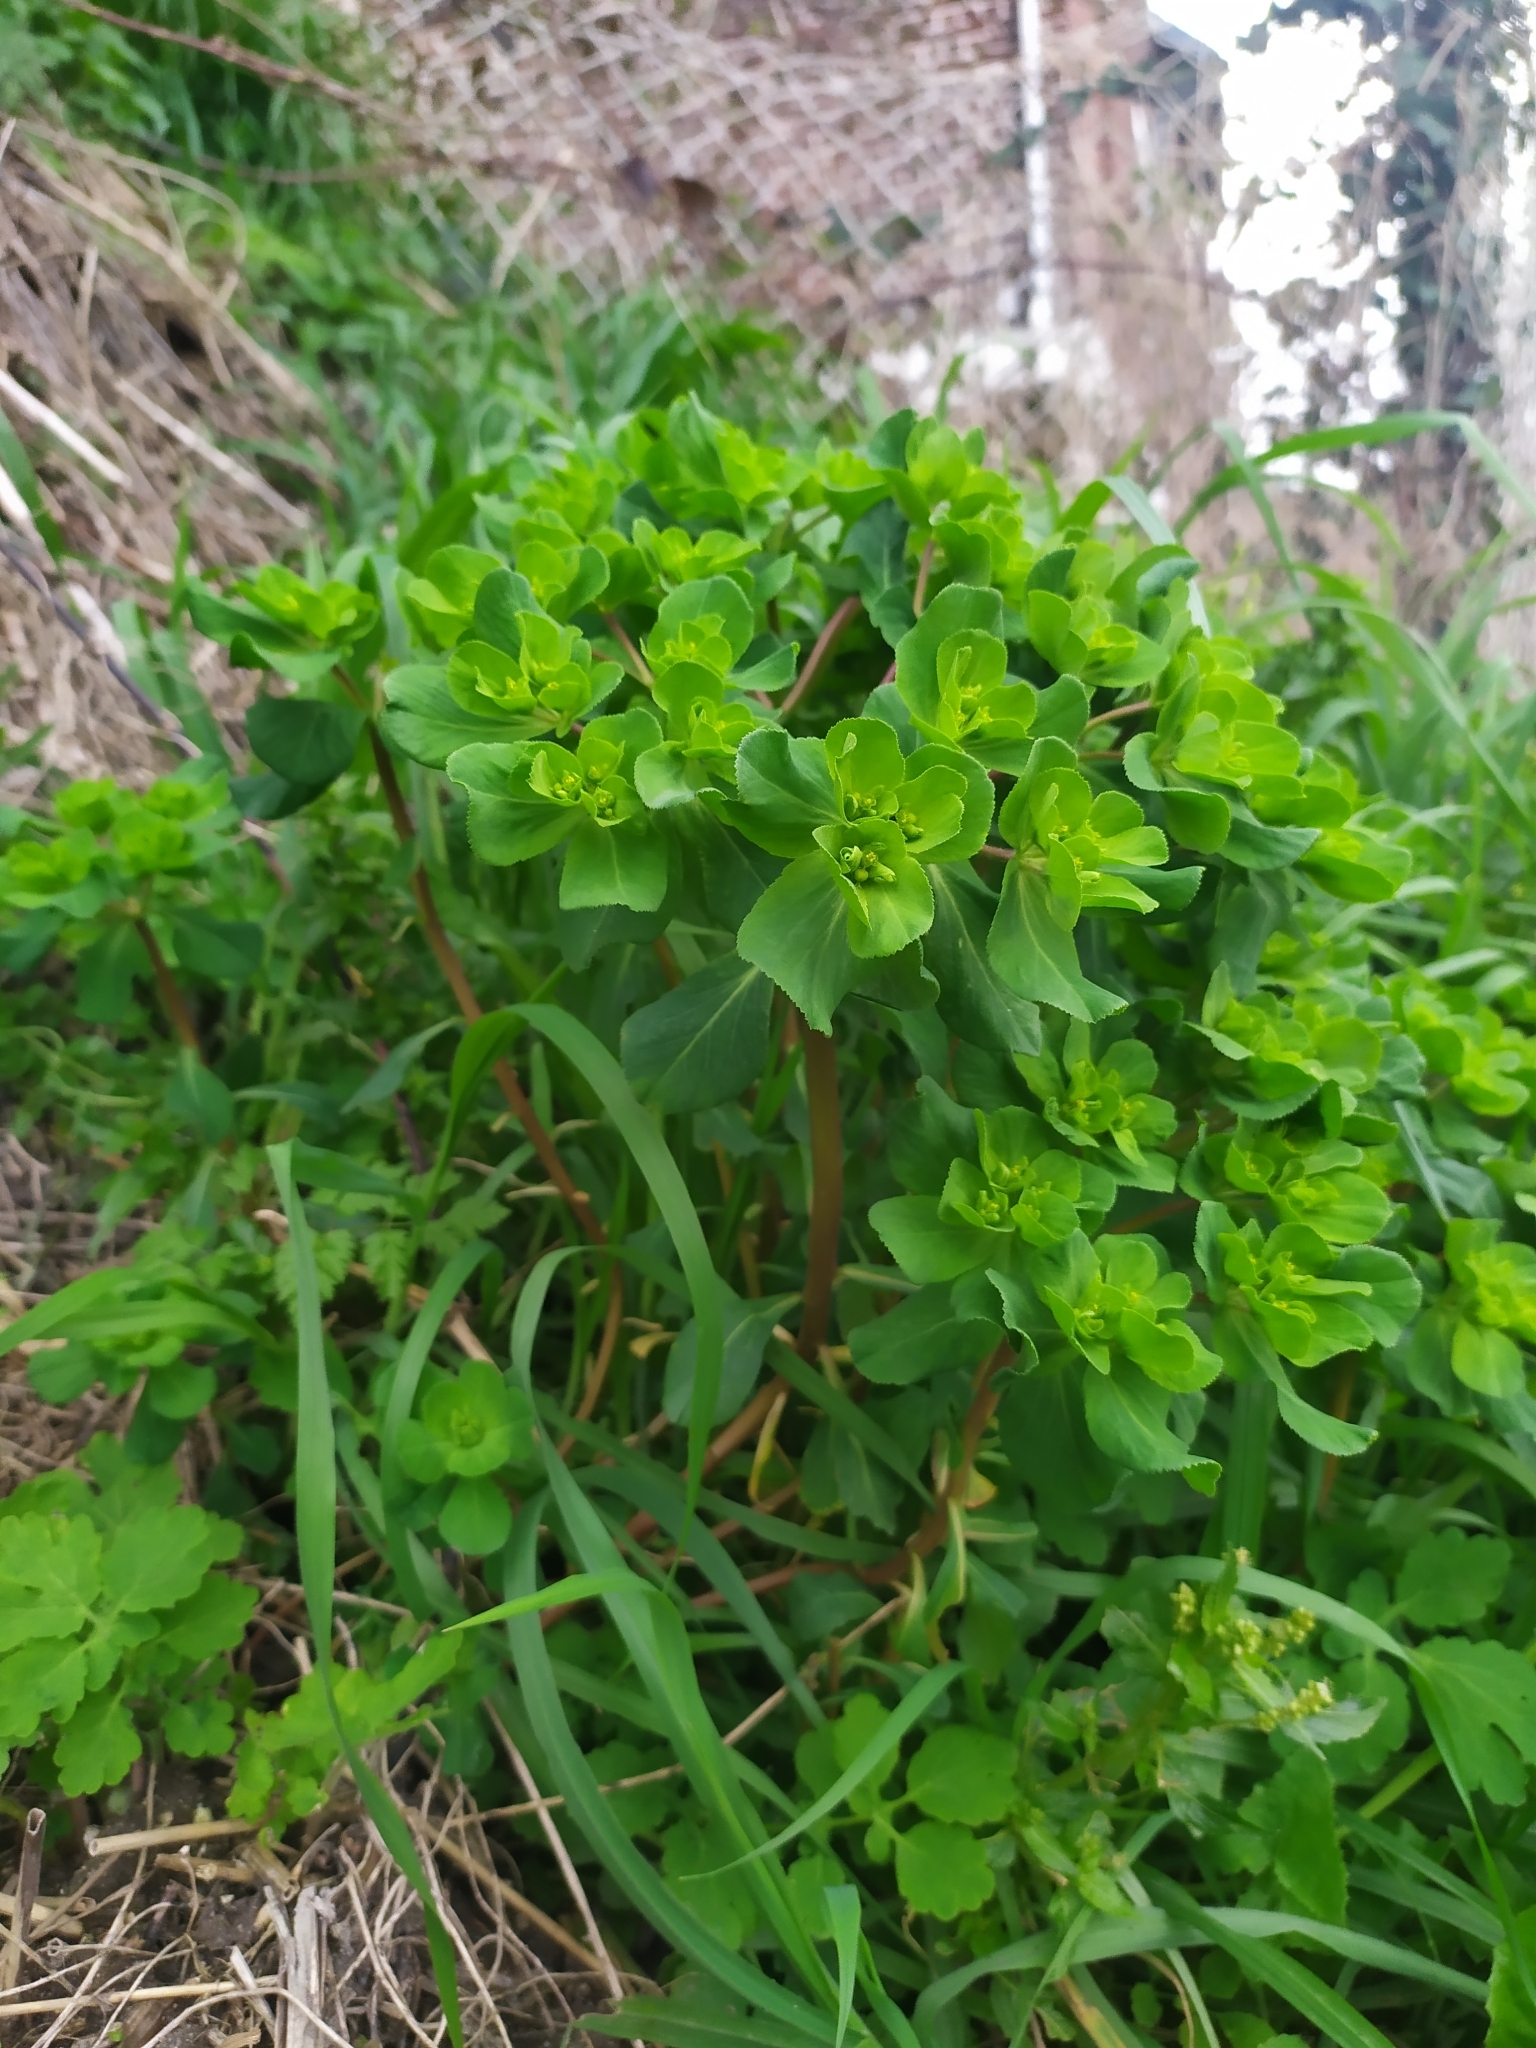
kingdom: Plantae
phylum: Tracheophyta
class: Magnoliopsida
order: Malpighiales
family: Euphorbiaceae
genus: Euphorbia
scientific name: Euphorbia helioscopia
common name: Sun spurge
